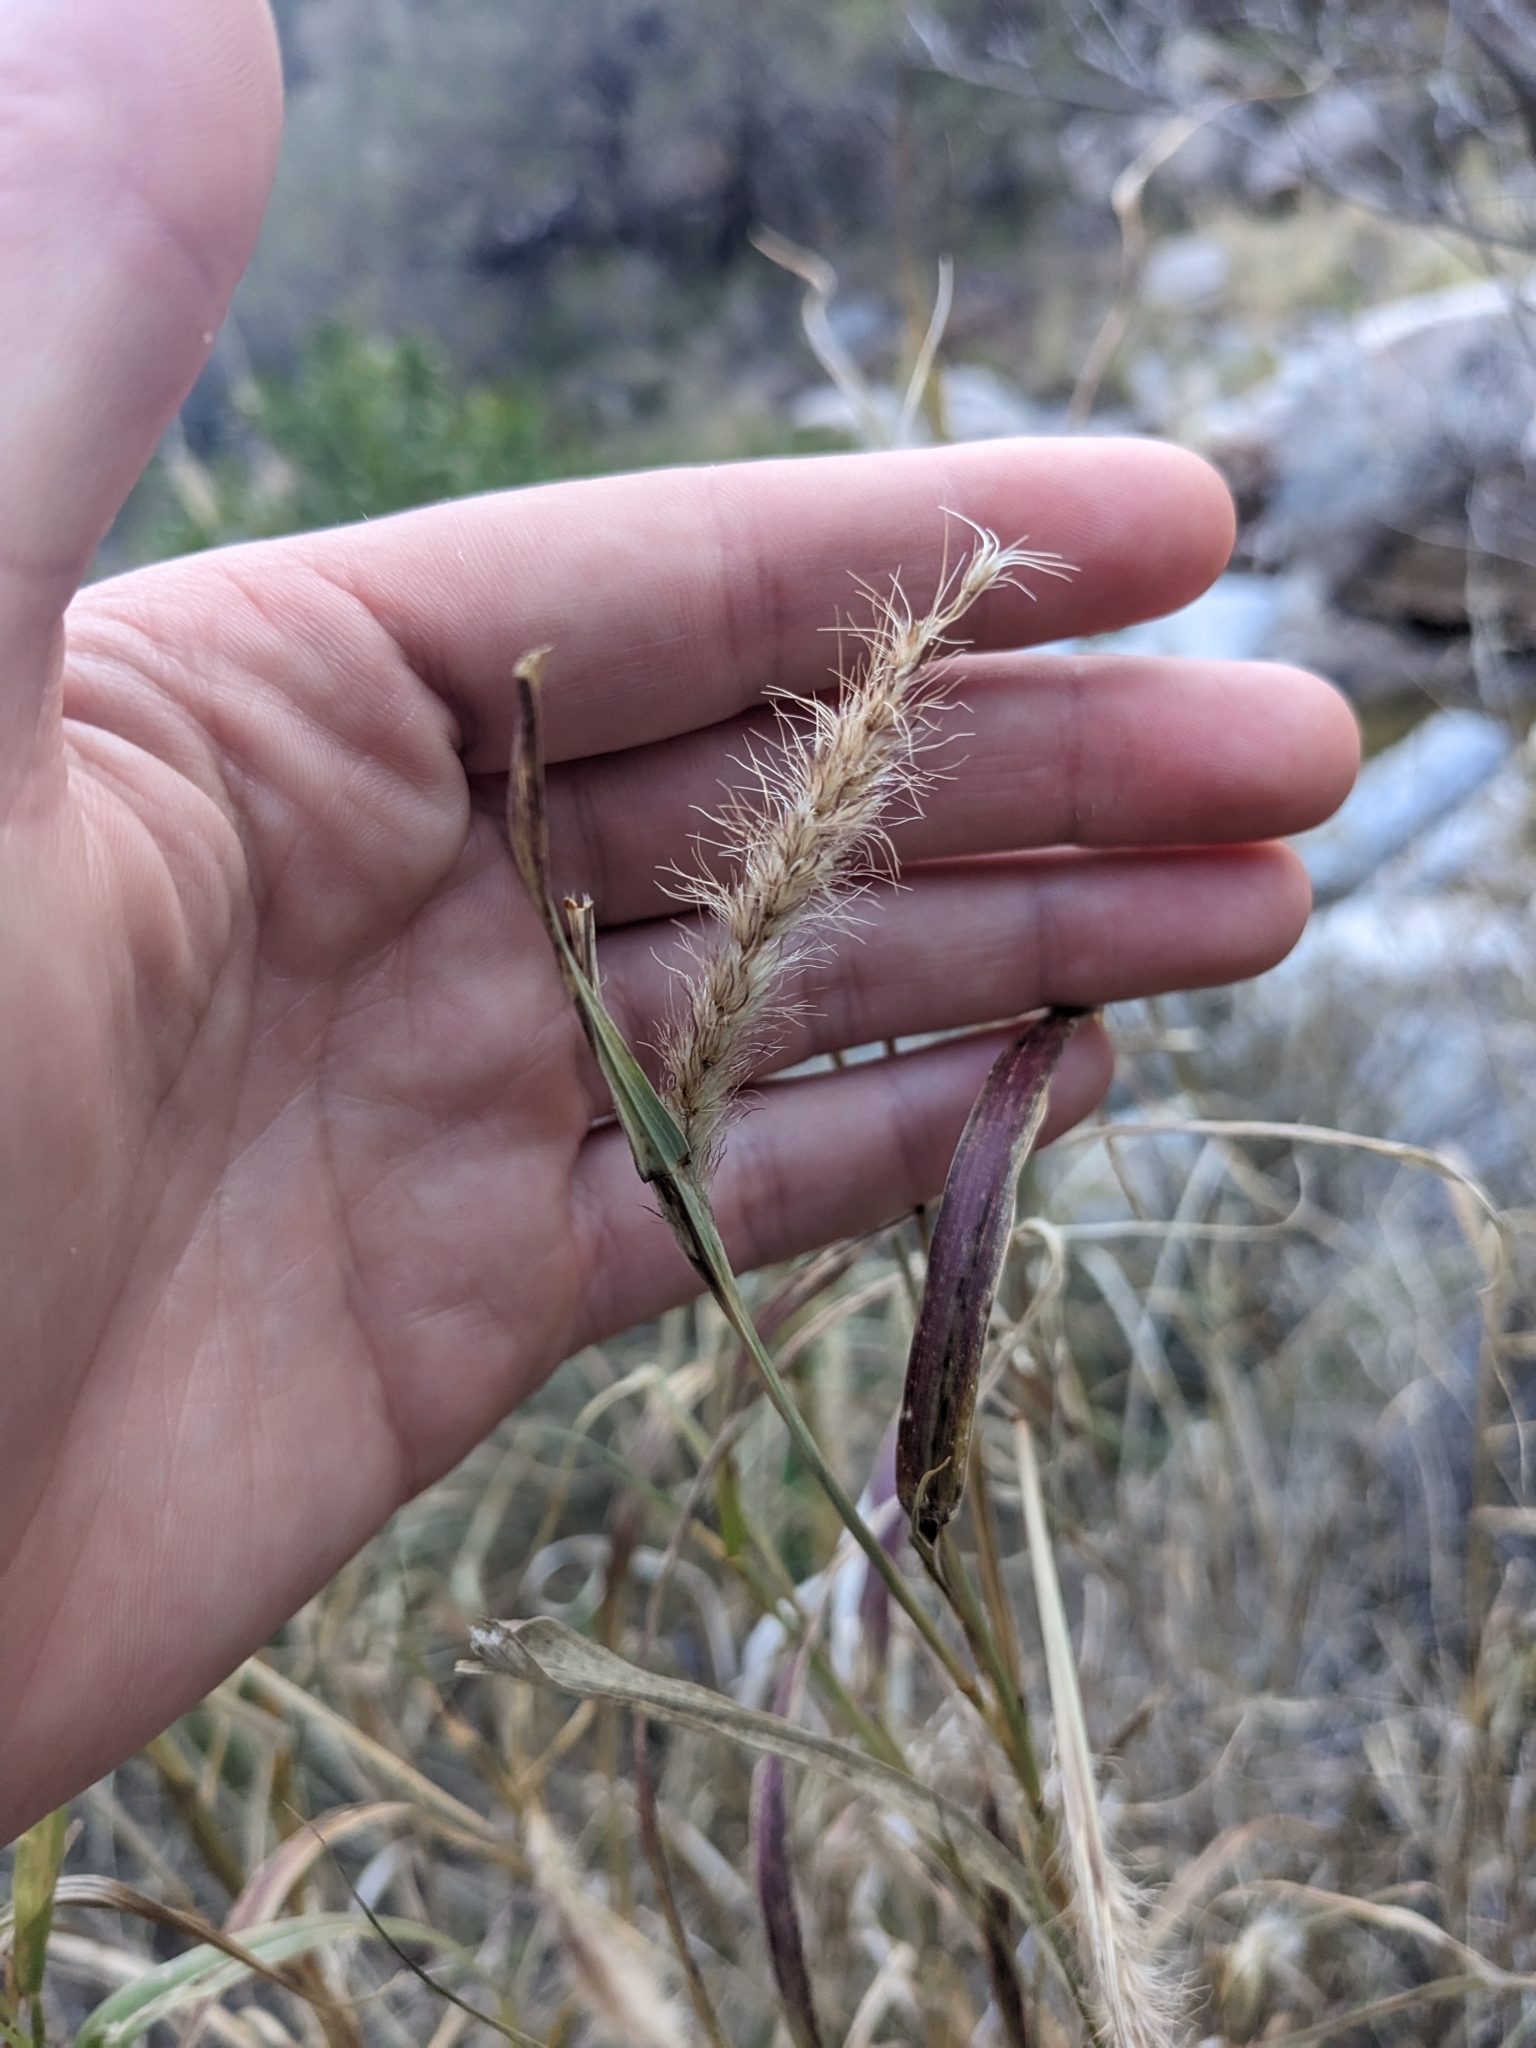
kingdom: Plantae
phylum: Tracheophyta
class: Liliopsida
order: Poales
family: Poaceae
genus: Cenchrus
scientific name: Cenchrus ciliaris
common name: Buffelgrass
